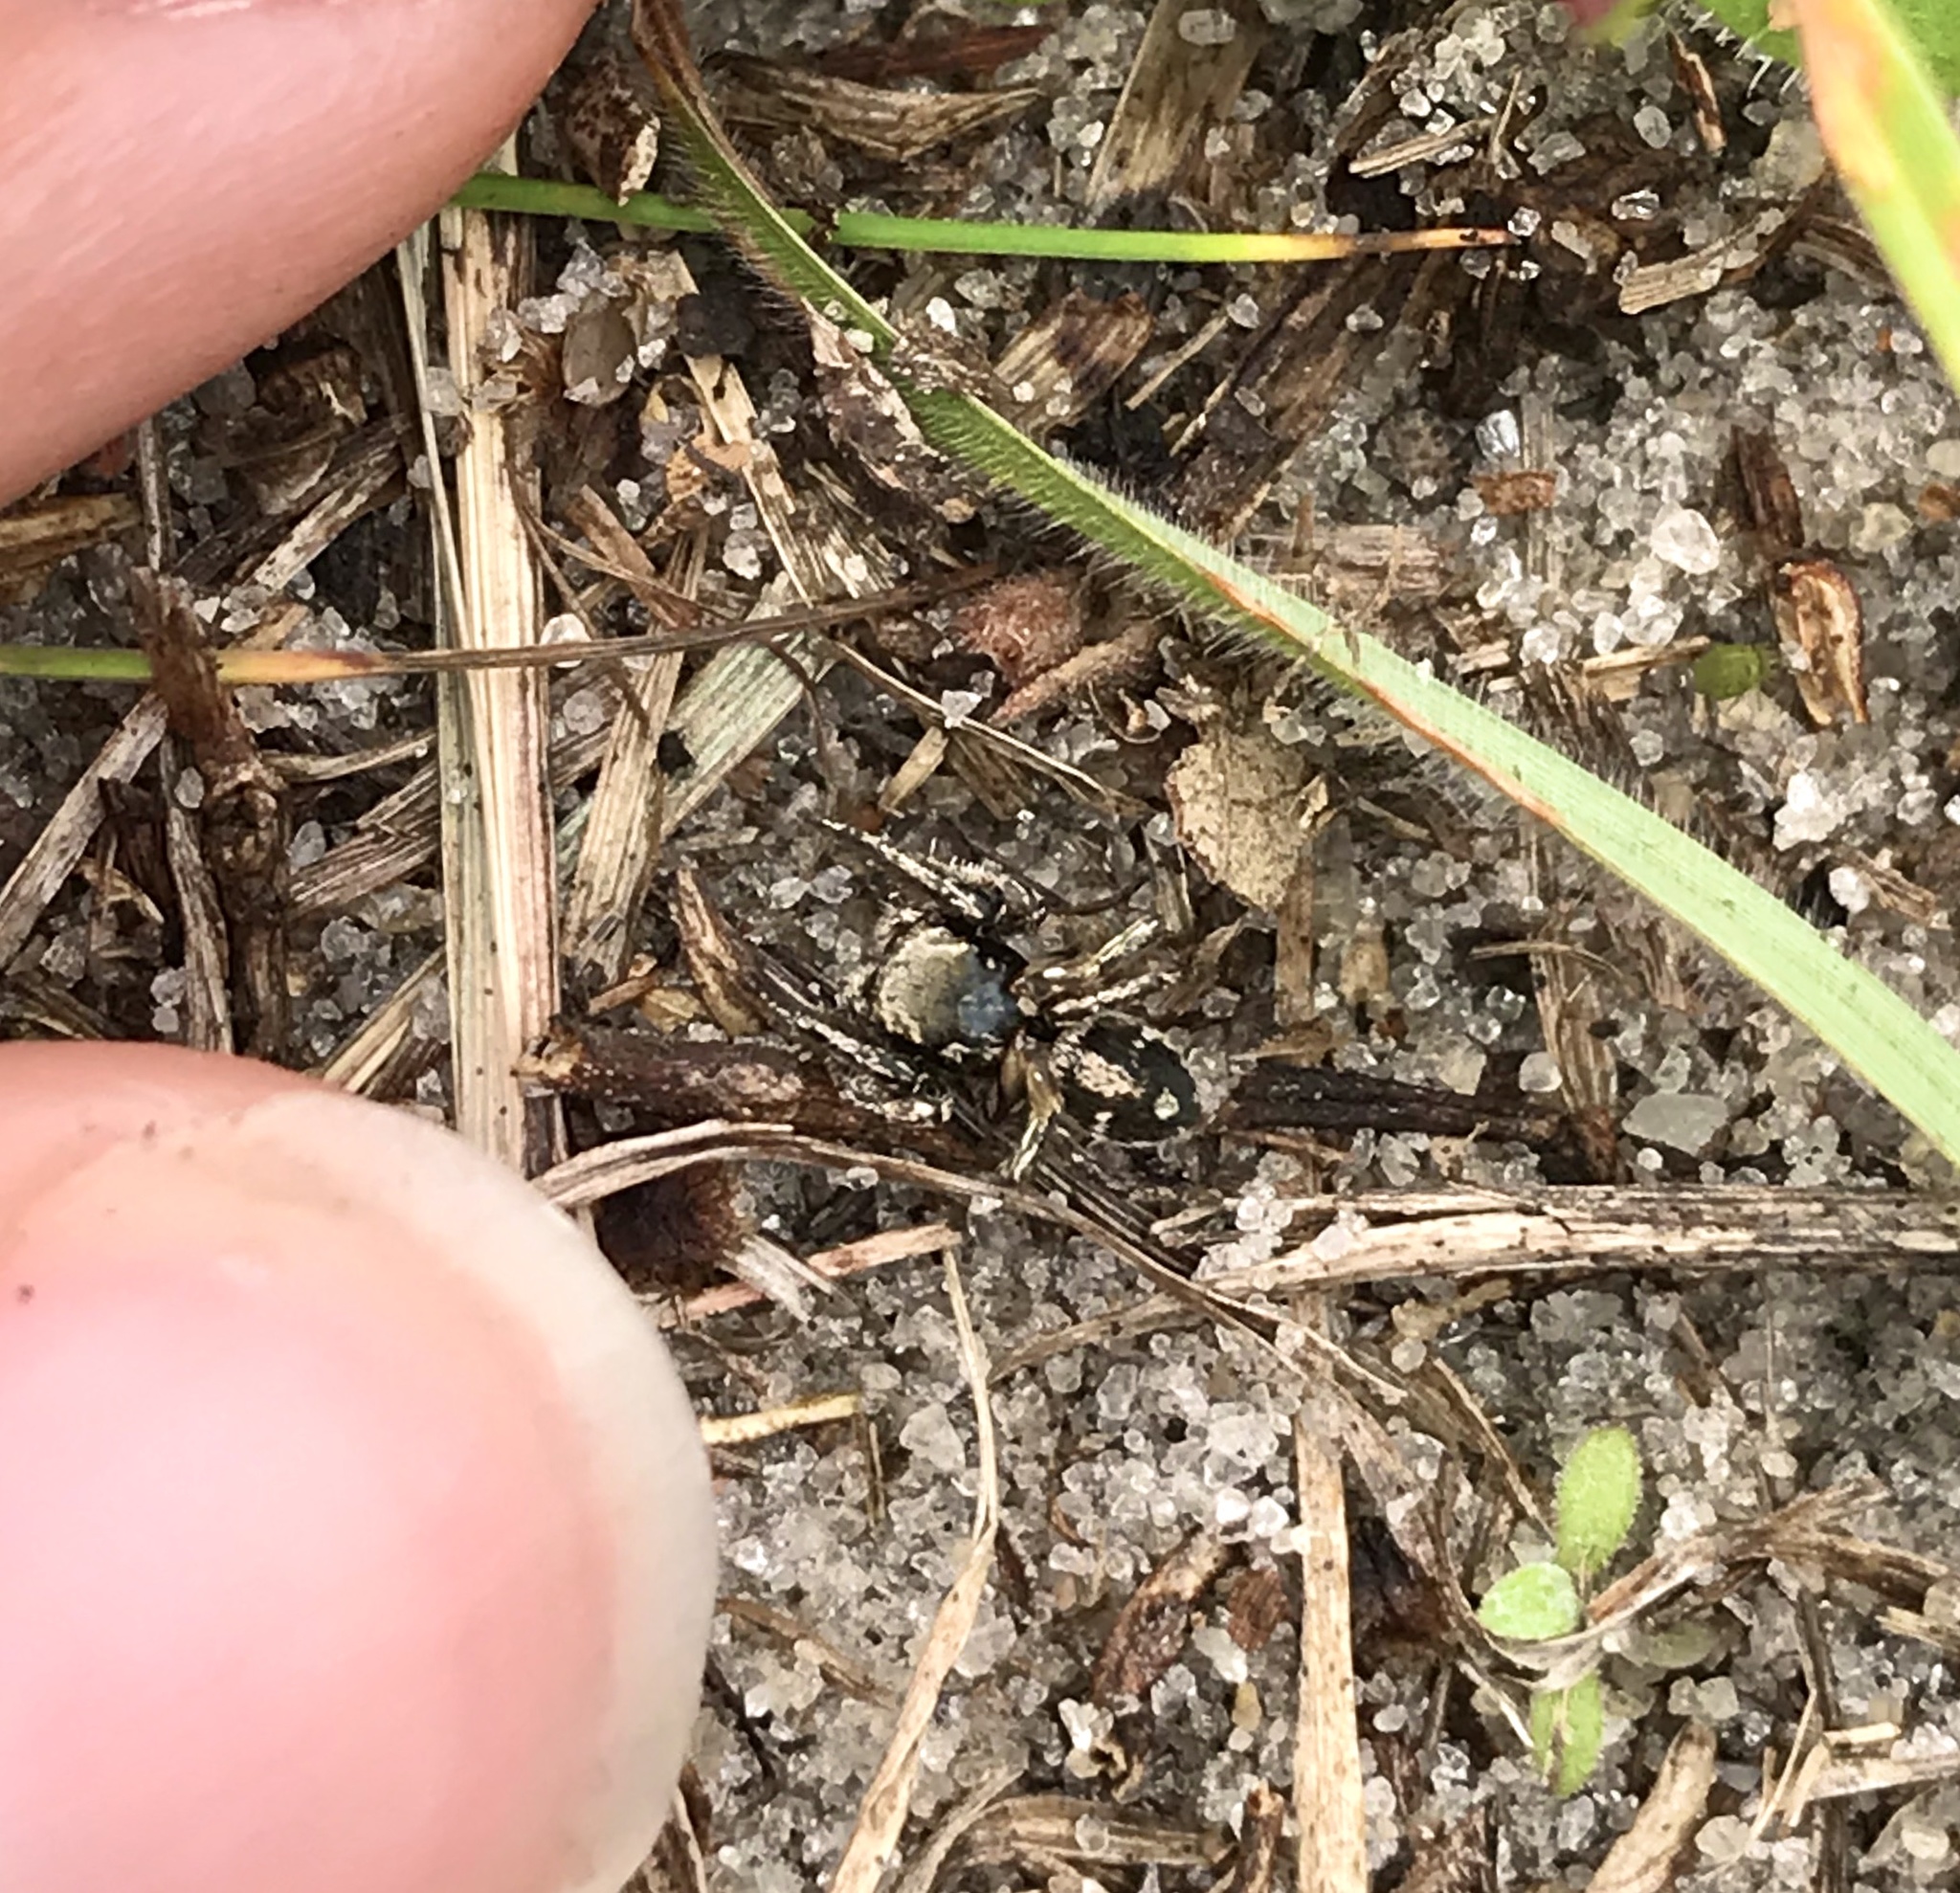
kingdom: Animalia
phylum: Arthropoda
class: Arachnida
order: Araneae
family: Salticidae
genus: Habronattus
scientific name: Habronattus coecatus
